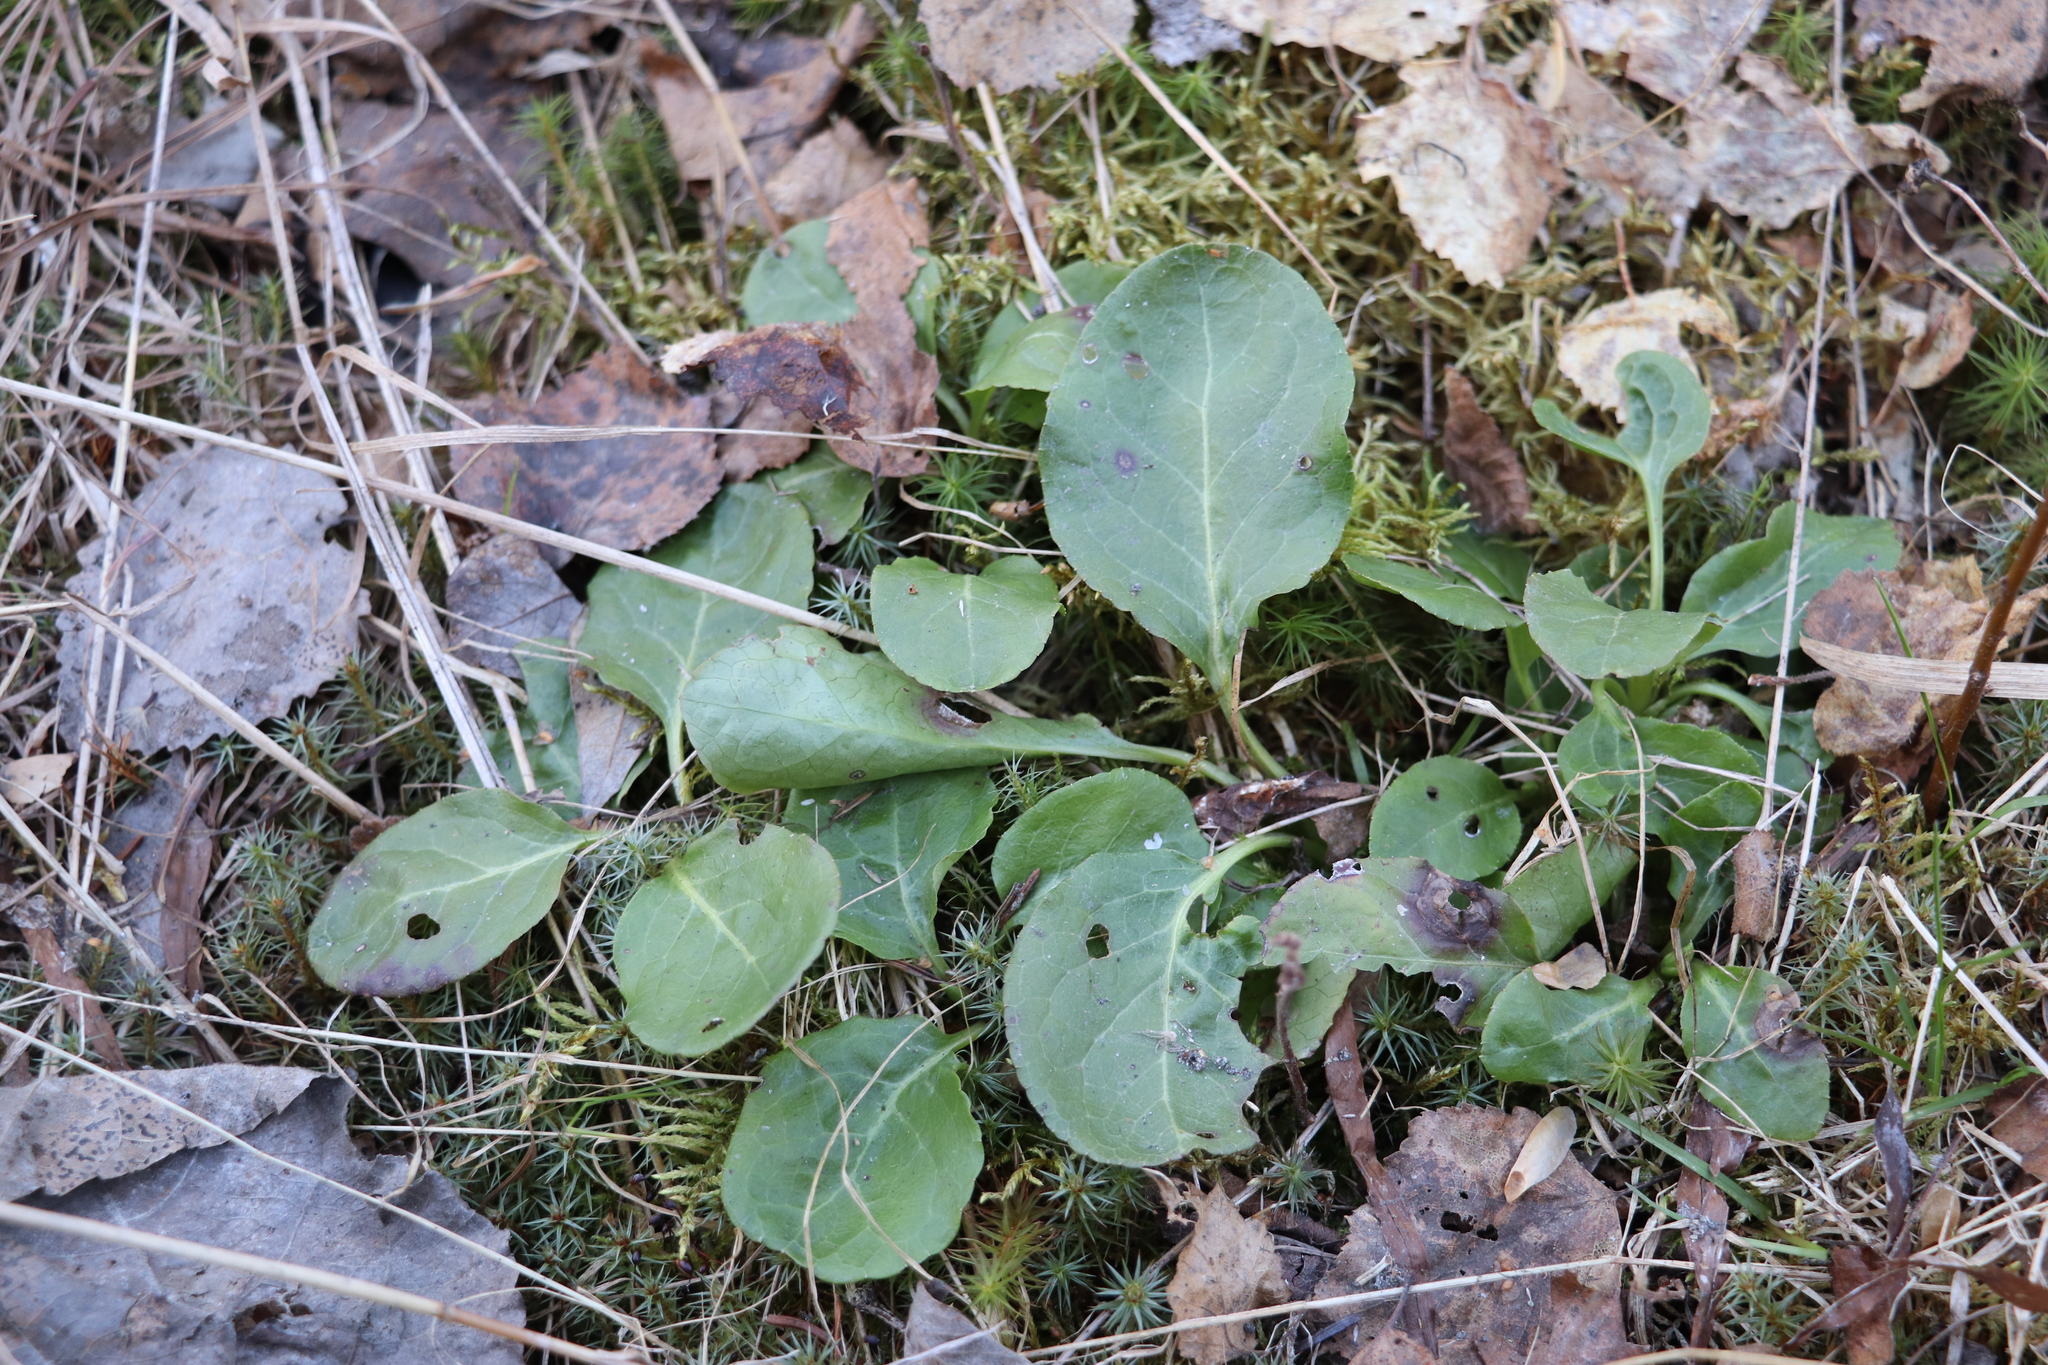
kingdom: Plantae
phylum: Tracheophyta
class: Magnoliopsida
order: Ericales
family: Ericaceae
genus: Pyrola
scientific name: Pyrola rotundifolia
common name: Round-leaved wintergreen
